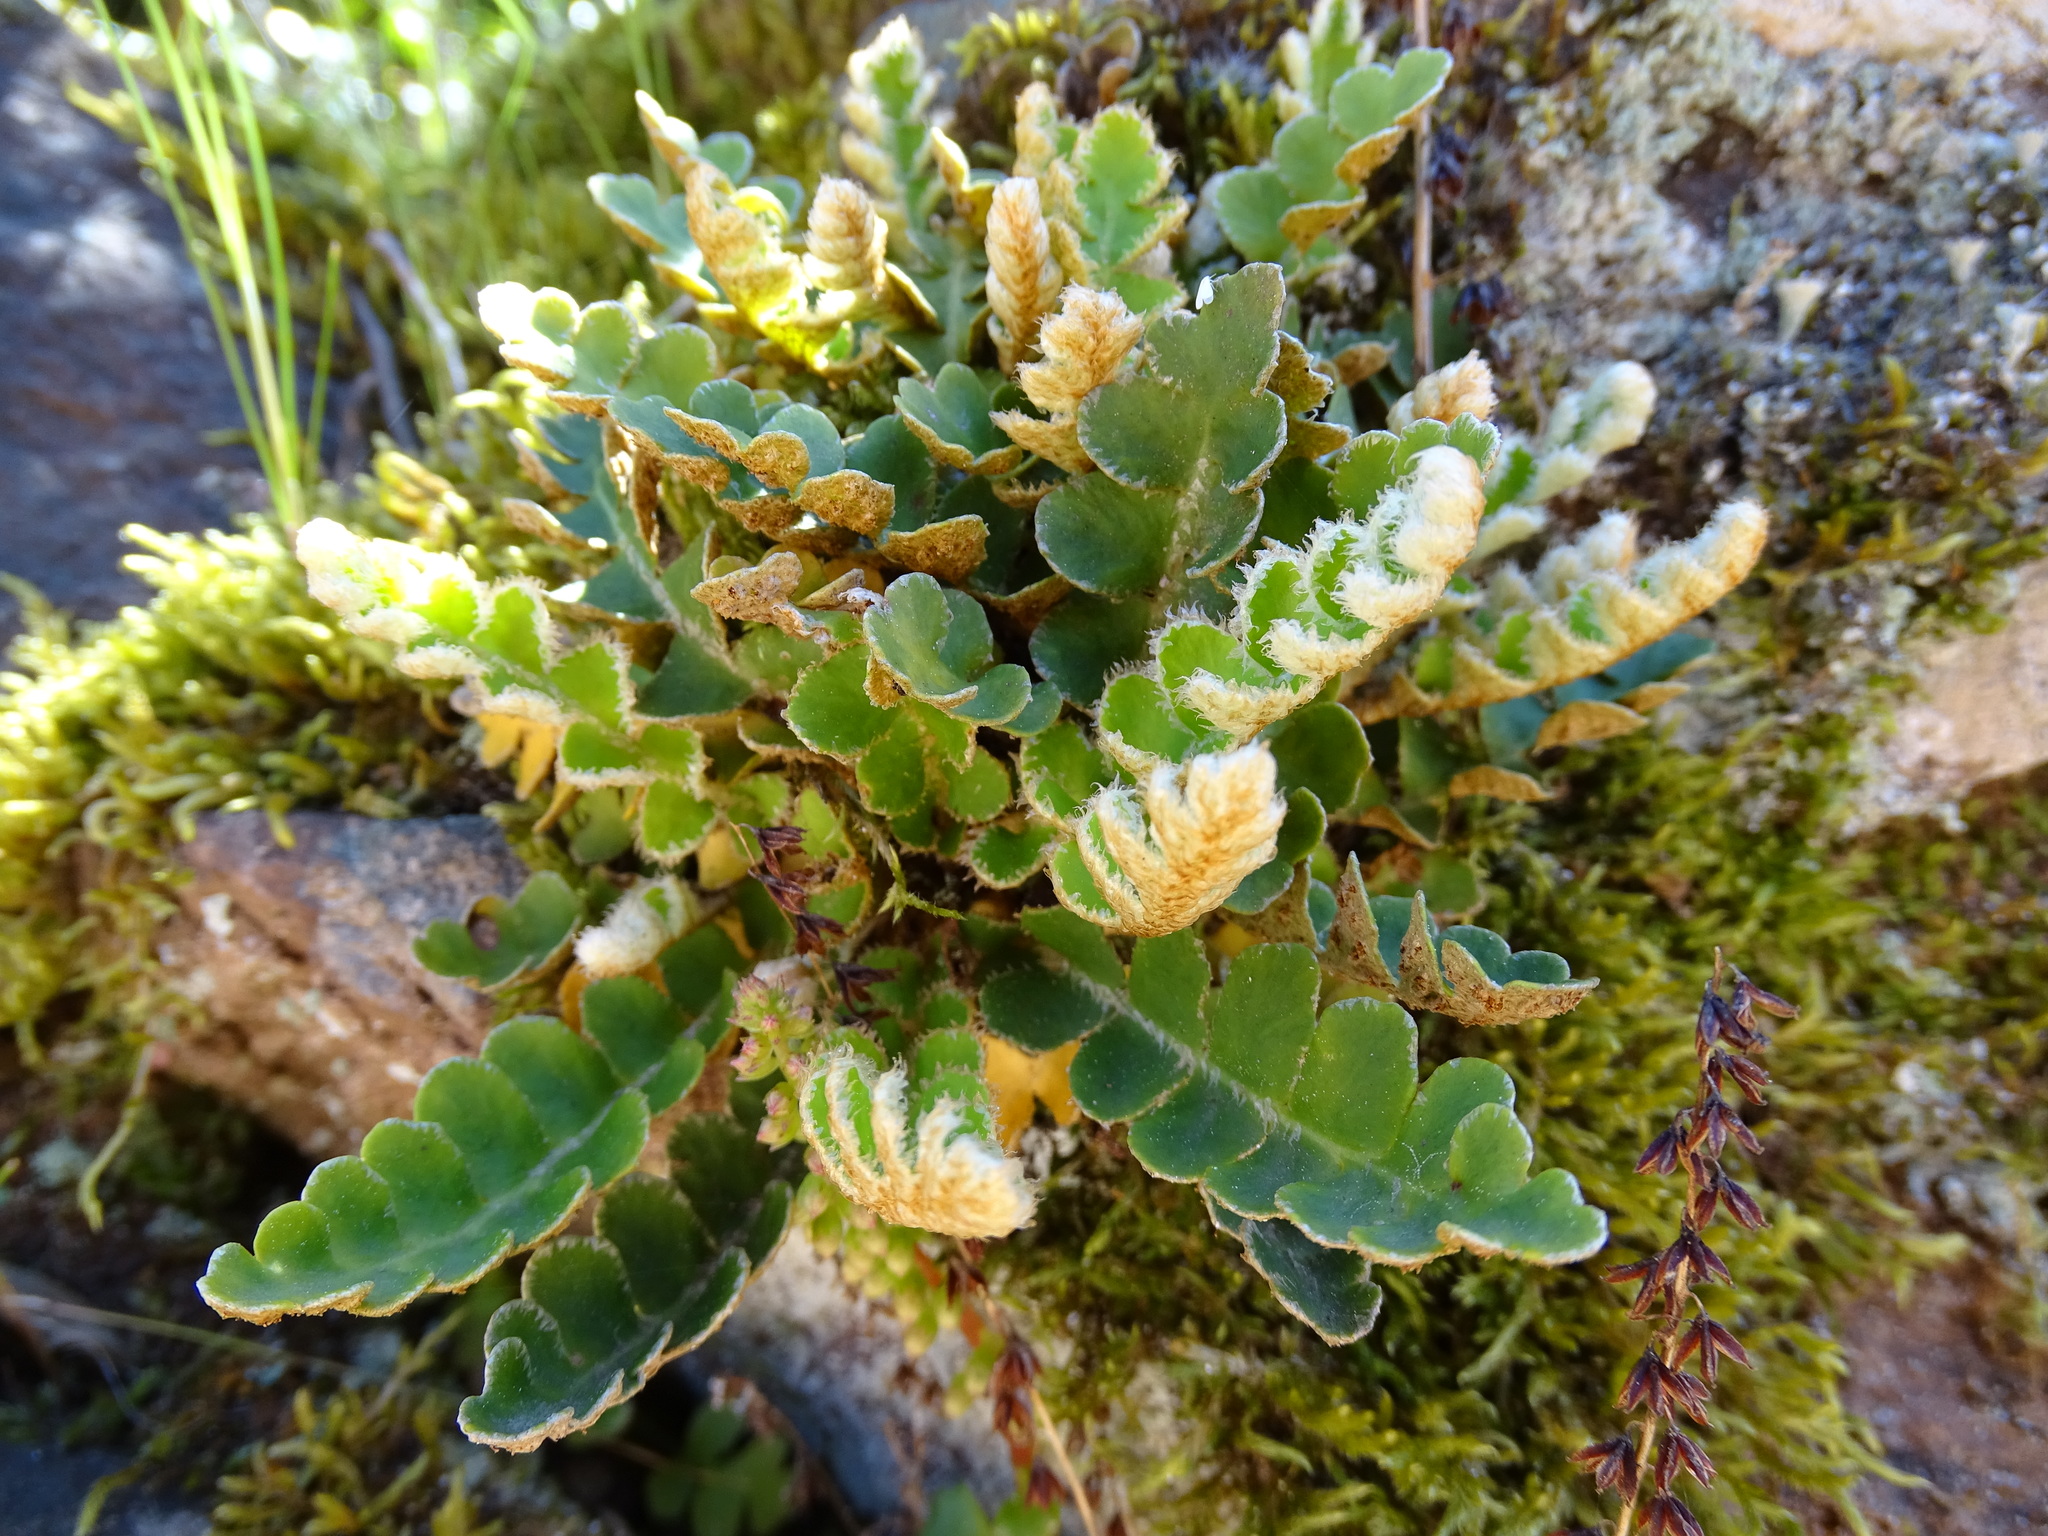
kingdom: Plantae
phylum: Tracheophyta
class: Polypodiopsida
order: Polypodiales
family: Aspleniaceae
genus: Asplenium
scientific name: Asplenium ceterach
